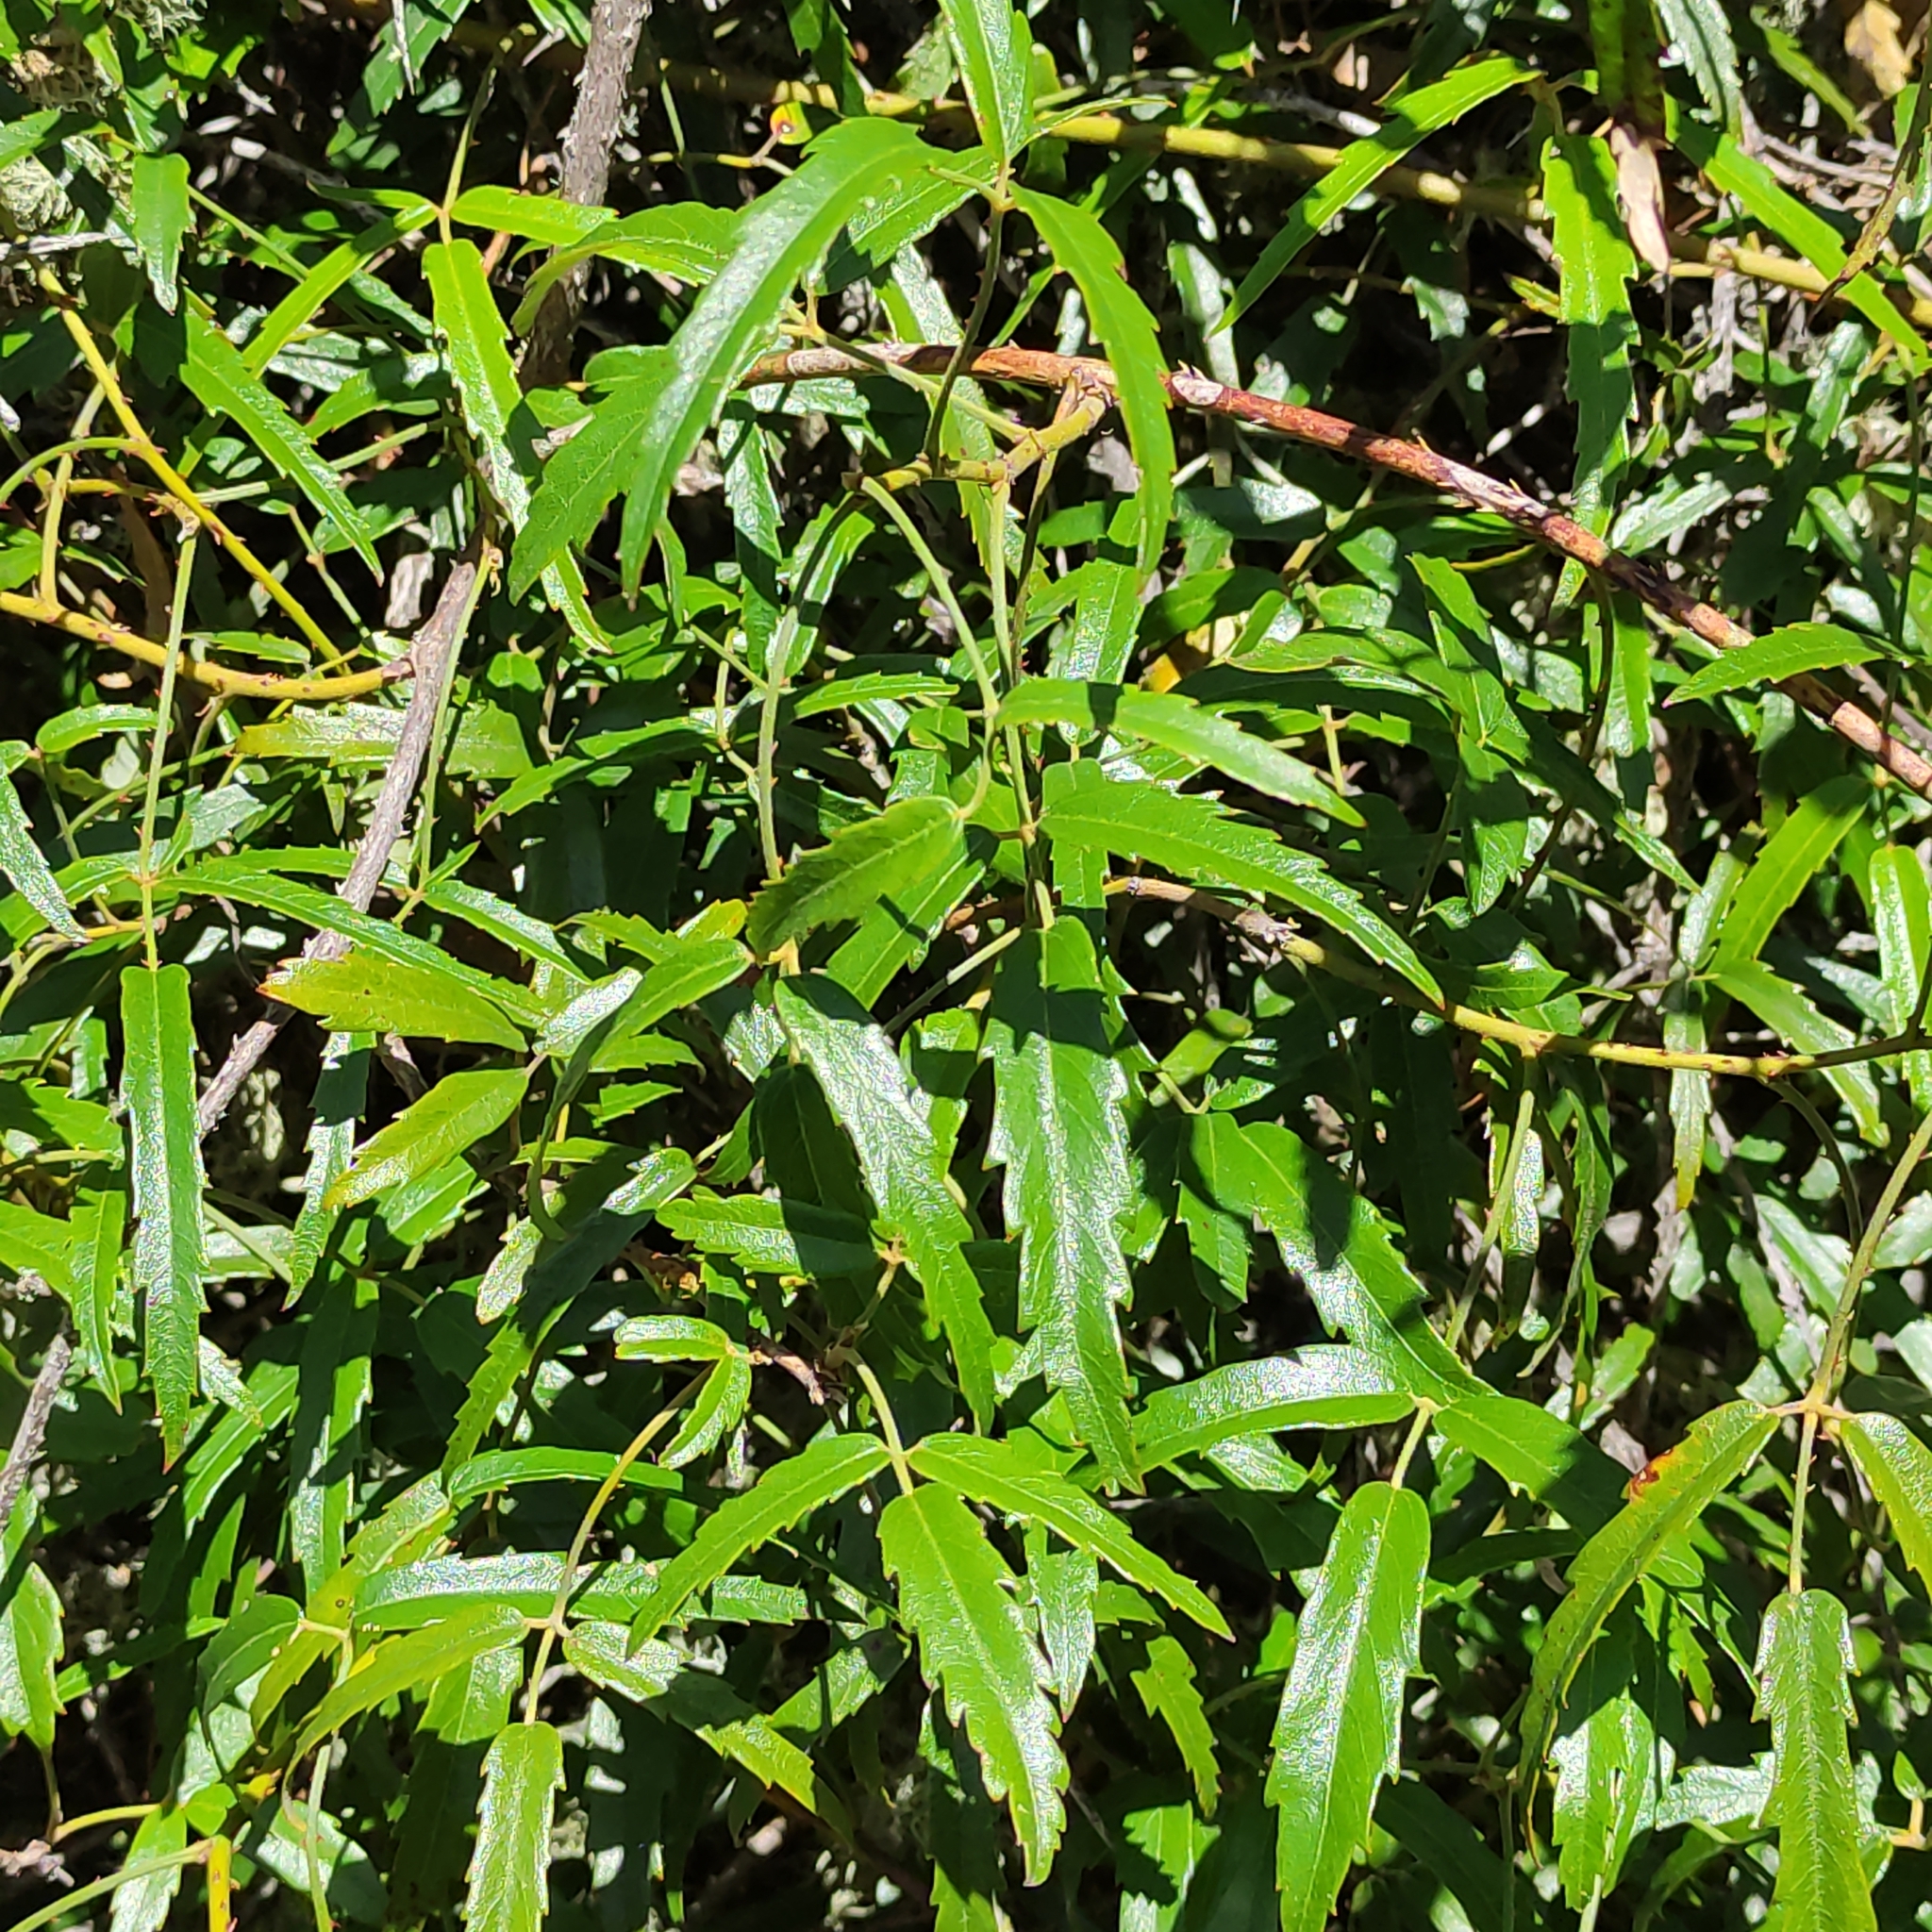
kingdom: Plantae
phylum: Tracheophyta
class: Magnoliopsida
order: Rosales
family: Rosaceae
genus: Rubus
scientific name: Rubus schmidelioides
